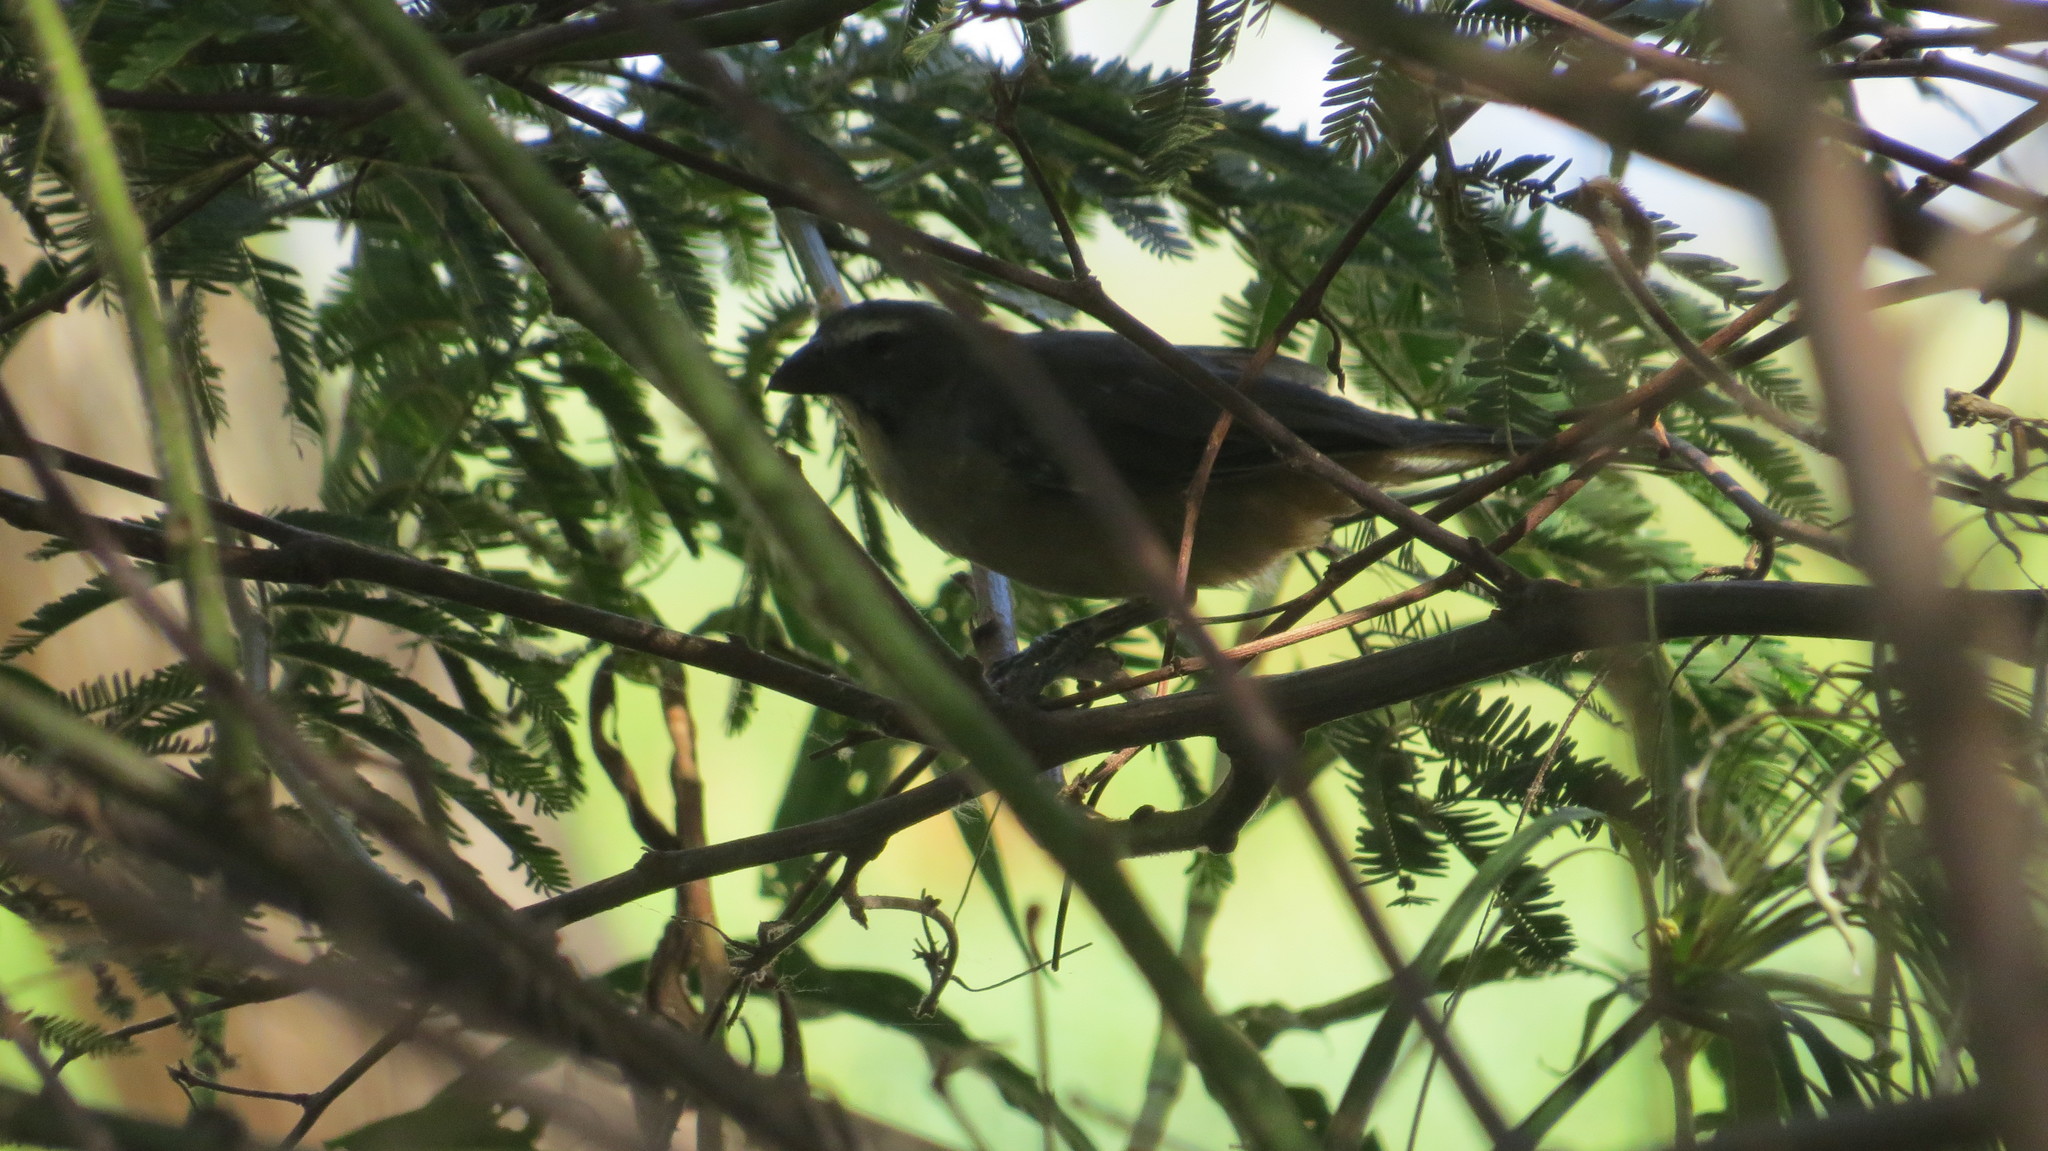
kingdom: Animalia
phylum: Chordata
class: Aves
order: Passeriformes
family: Thraupidae
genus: Saltator
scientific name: Saltator coerulescens
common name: Grayish saltator
